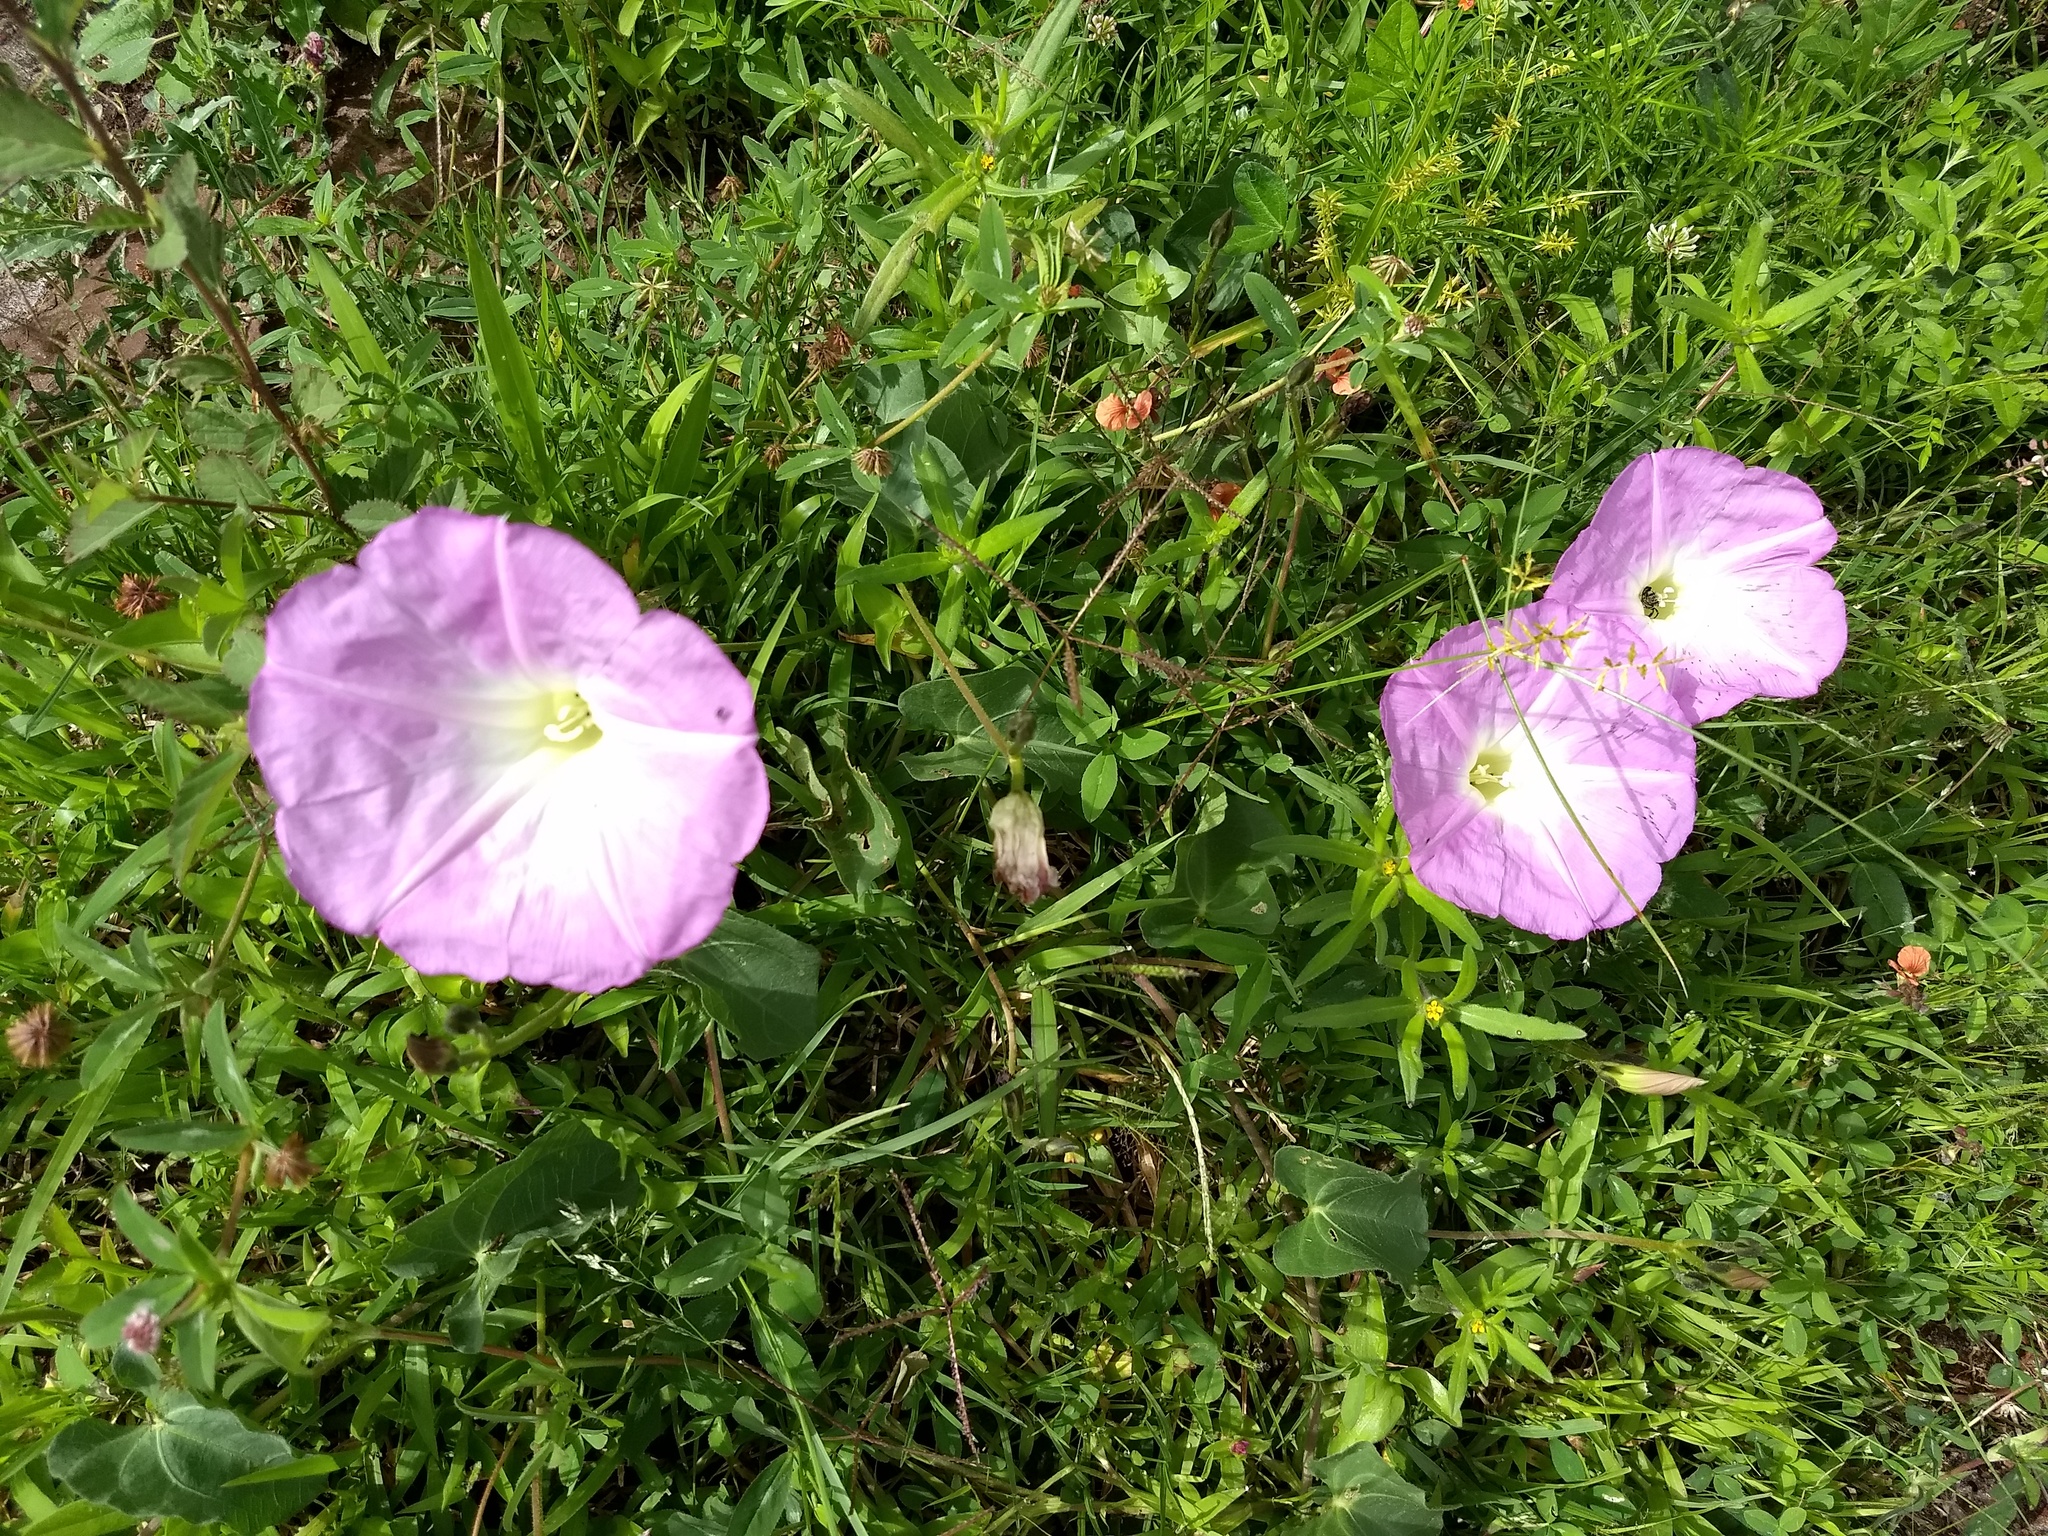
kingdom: Plantae
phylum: Tracheophyta
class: Magnoliopsida
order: Solanales
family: Convolvulaceae
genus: Ipomoea
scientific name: Ipomoea hartwegii
